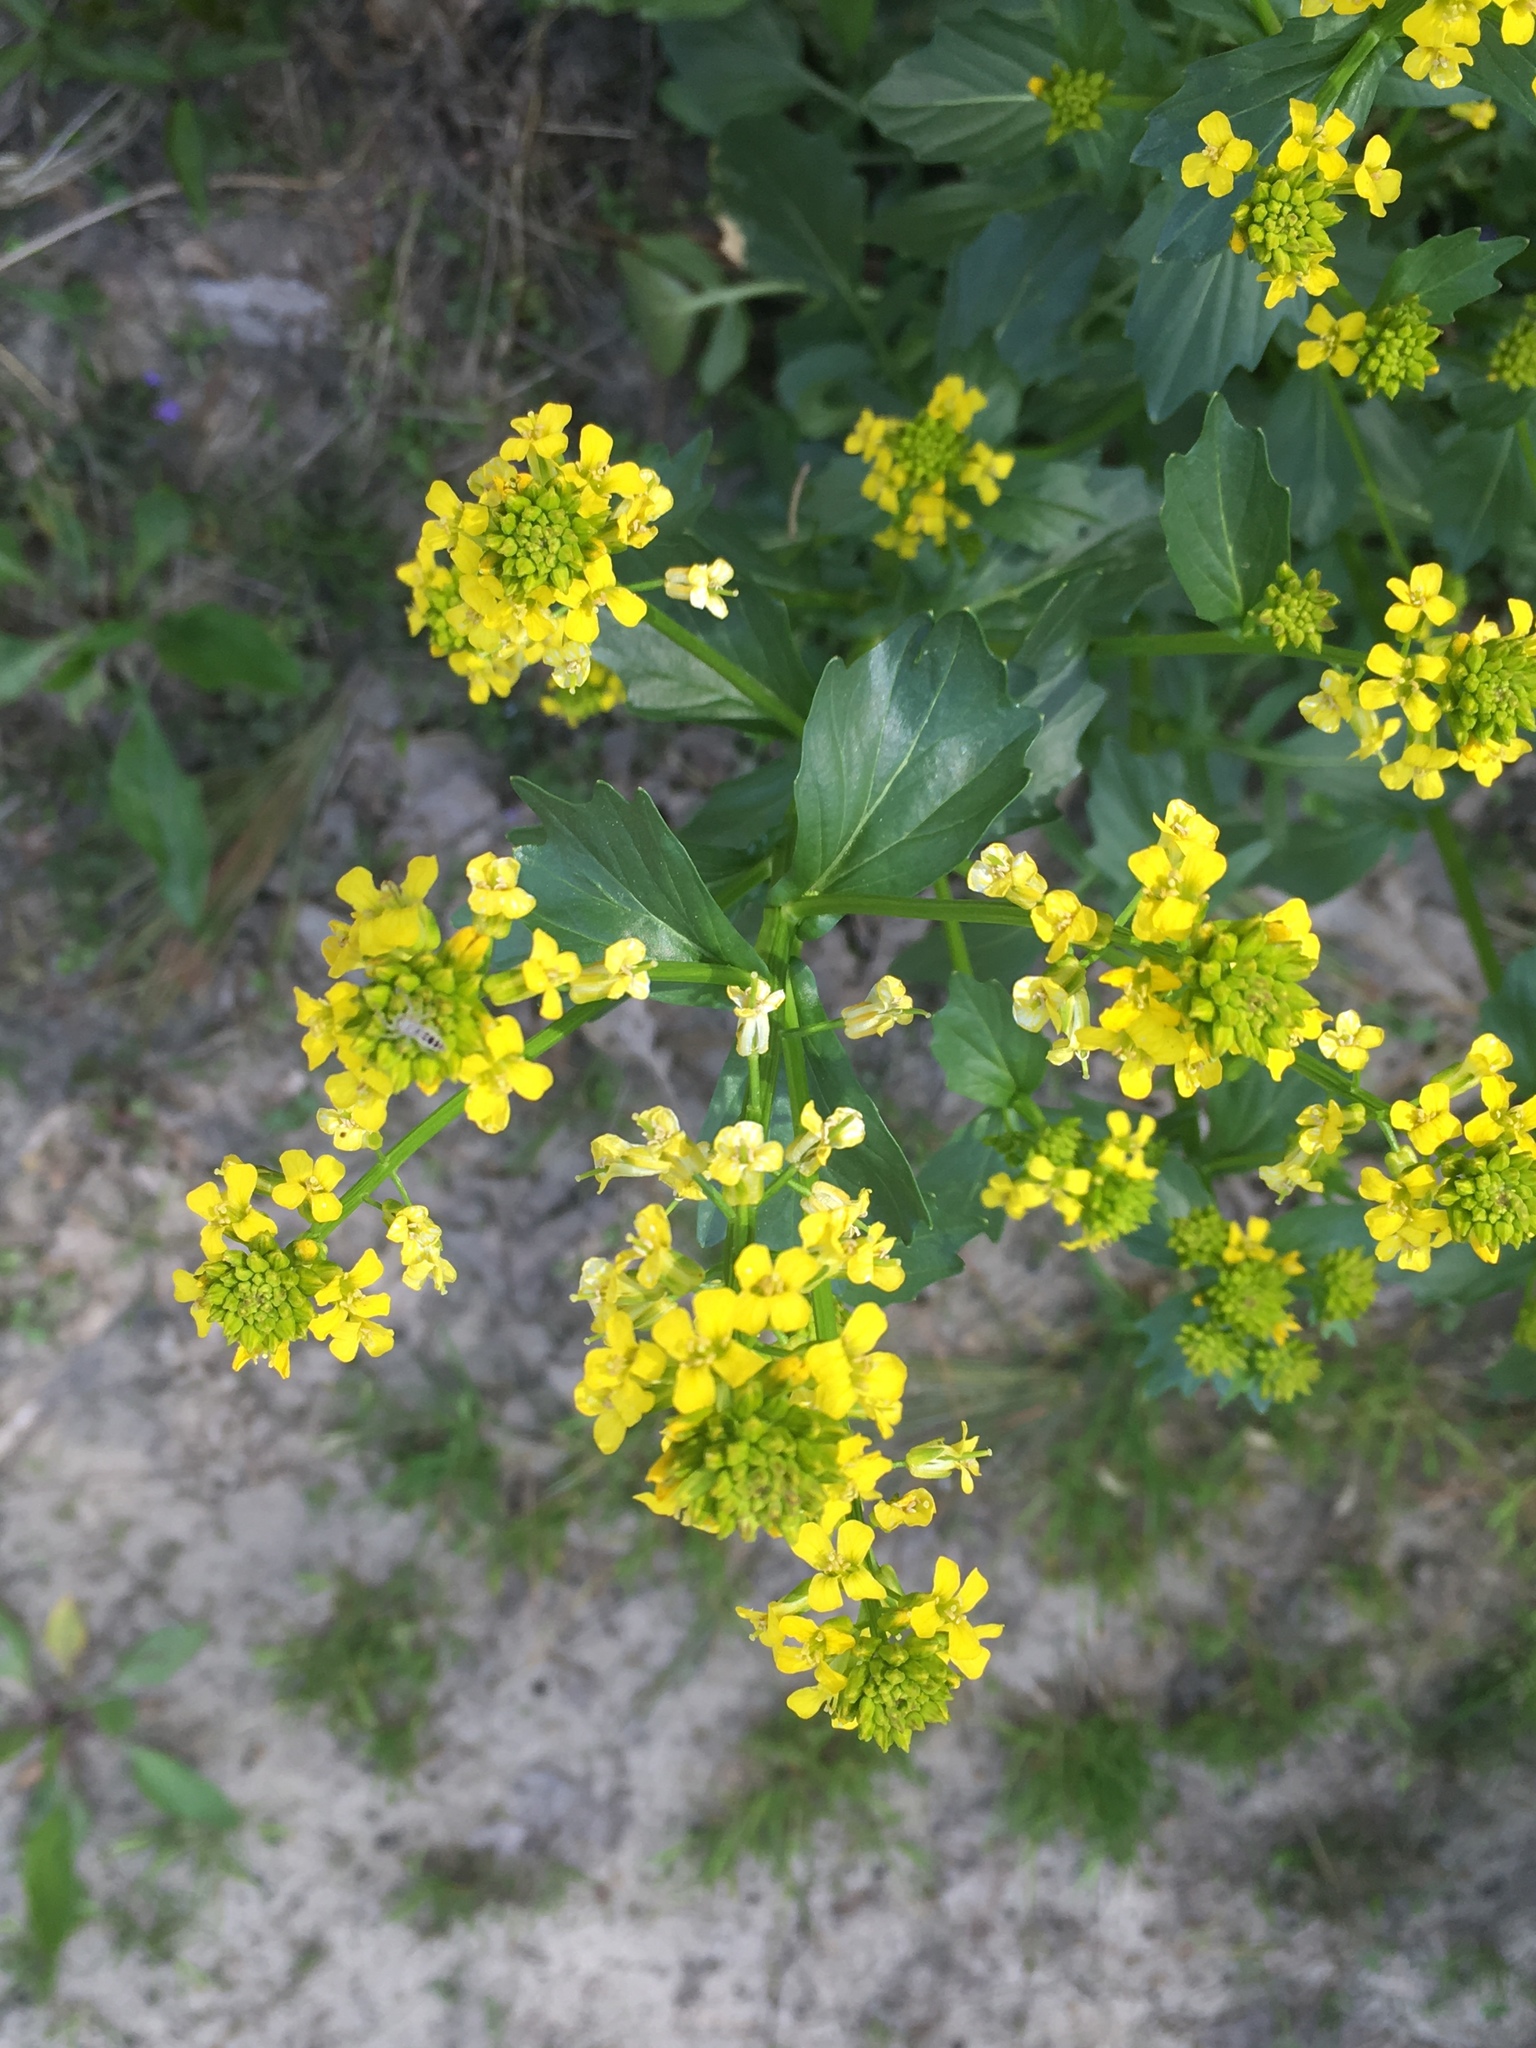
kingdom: Plantae
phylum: Tracheophyta
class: Magnoliopsida
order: Brassicales
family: Brassicaceae
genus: Barbarea
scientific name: Barbarea vulgaris
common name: Cressy-greens
